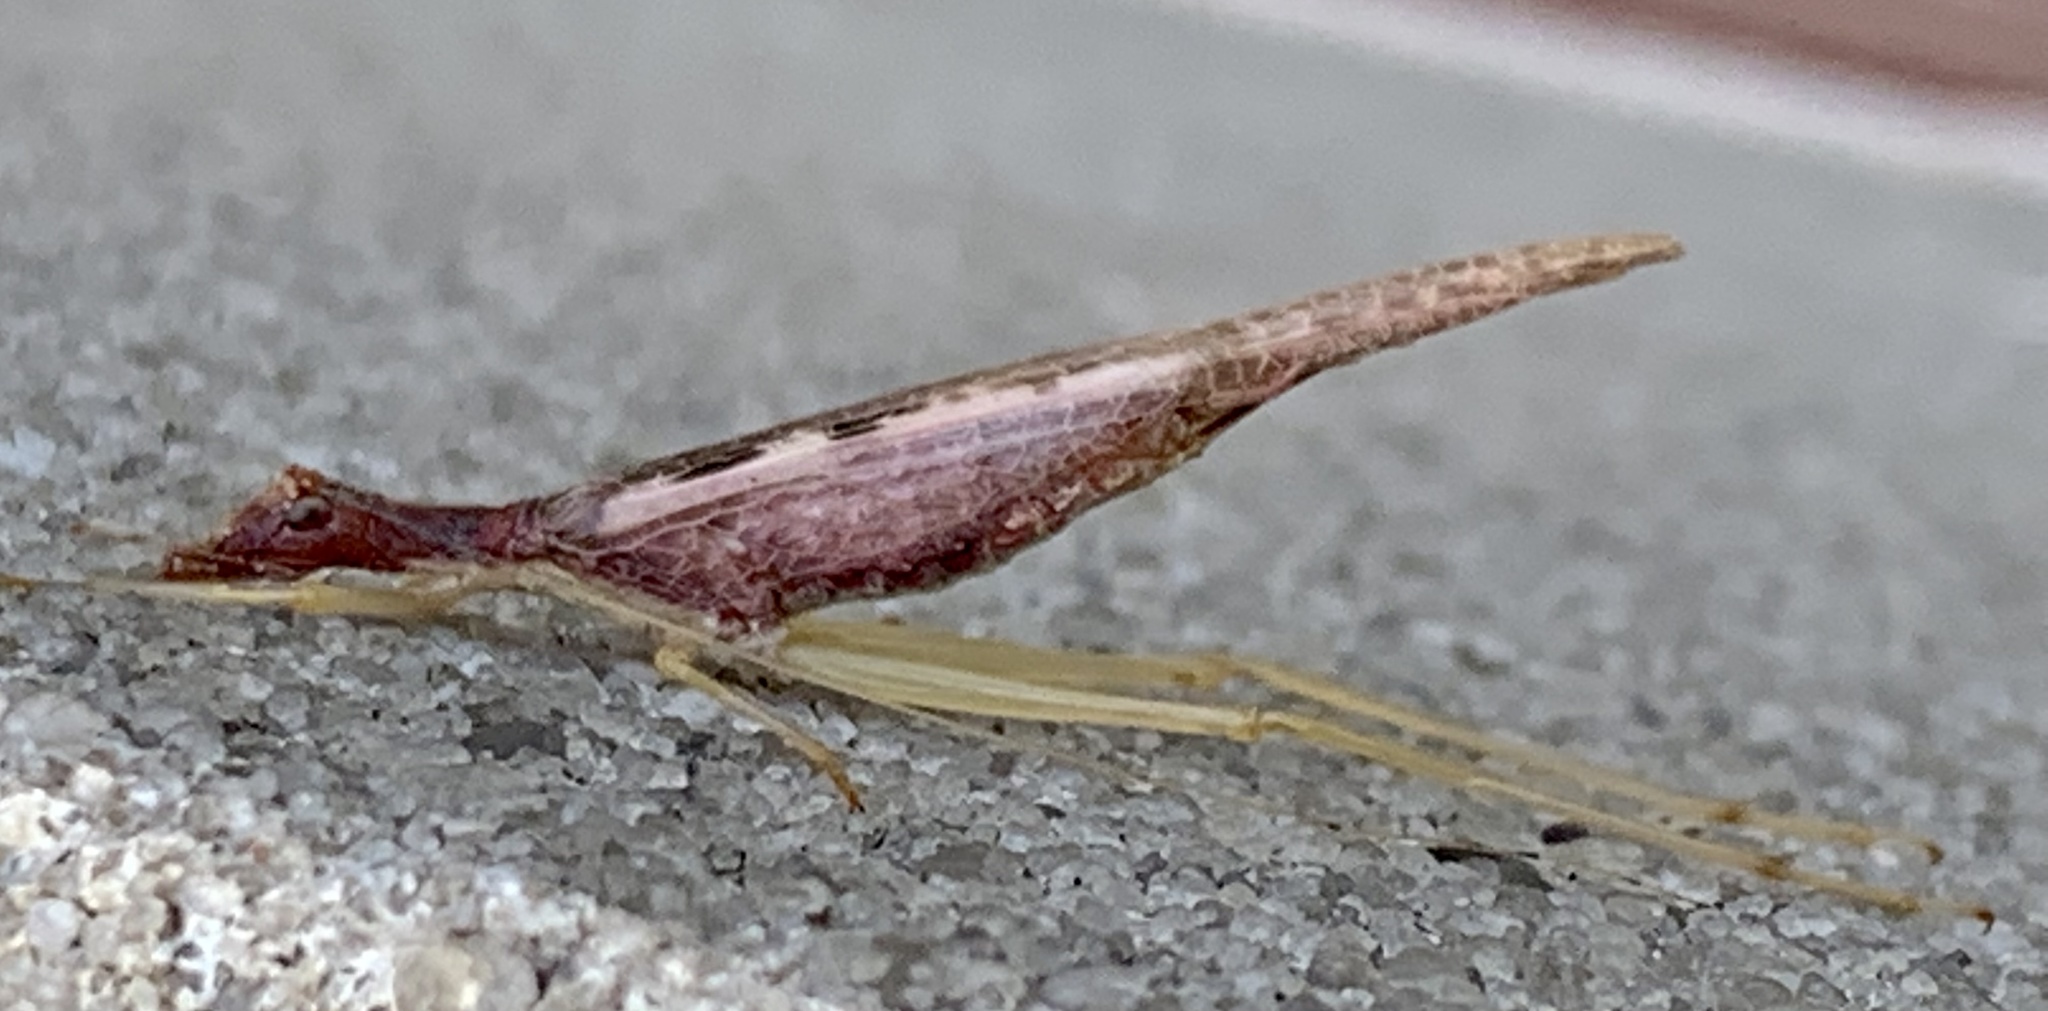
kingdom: Animalia
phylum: Arthropoda
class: Insecta
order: Orthoptera
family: Gryllidae
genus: Neoxabea
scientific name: Neoxabea bipunctata
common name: Two-spotted tree cricket
